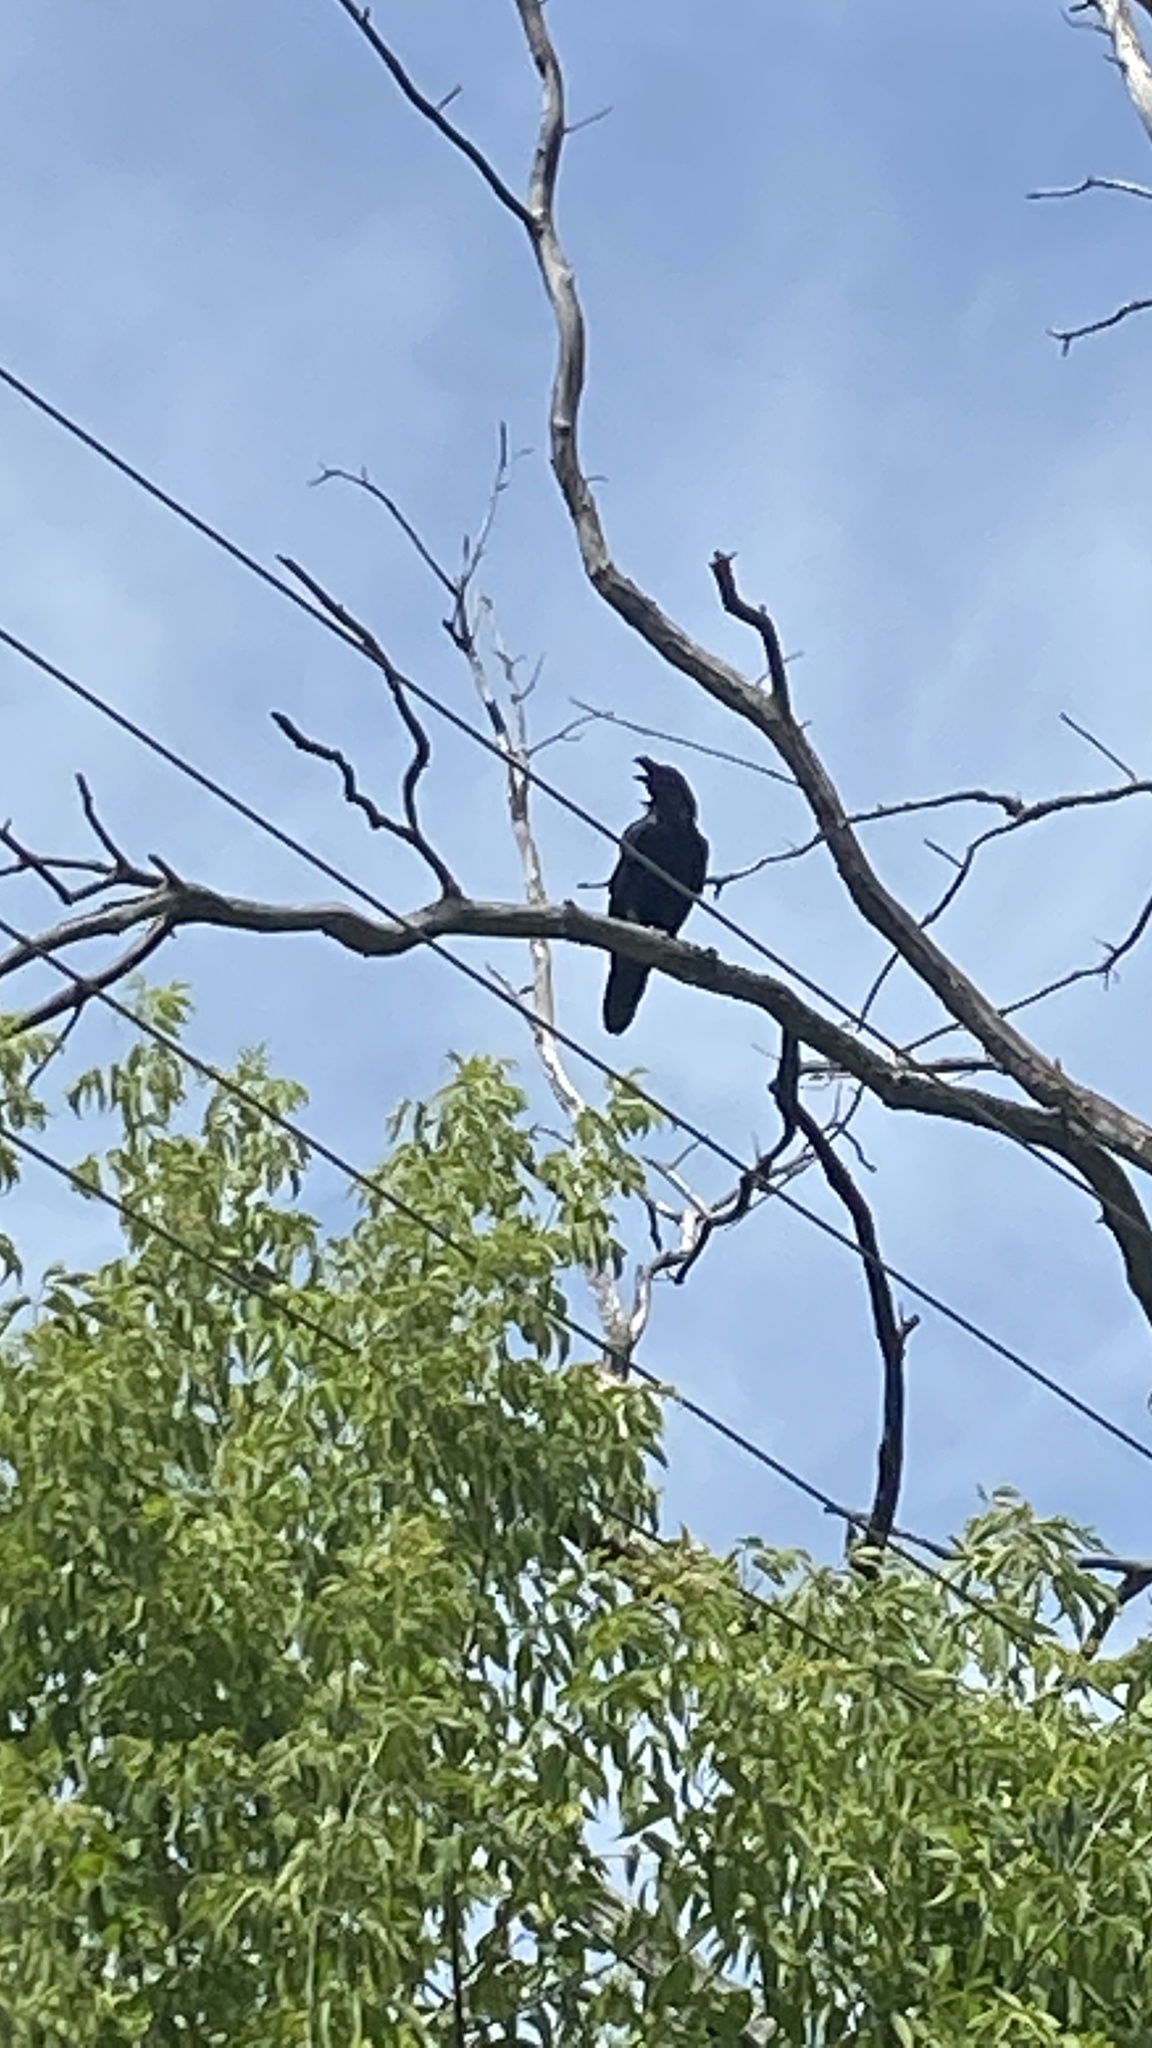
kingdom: Animalia
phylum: Chordata
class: Aves
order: Passeriformes
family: Corvidae
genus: Corvus
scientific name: Corvus corax
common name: Common raven
